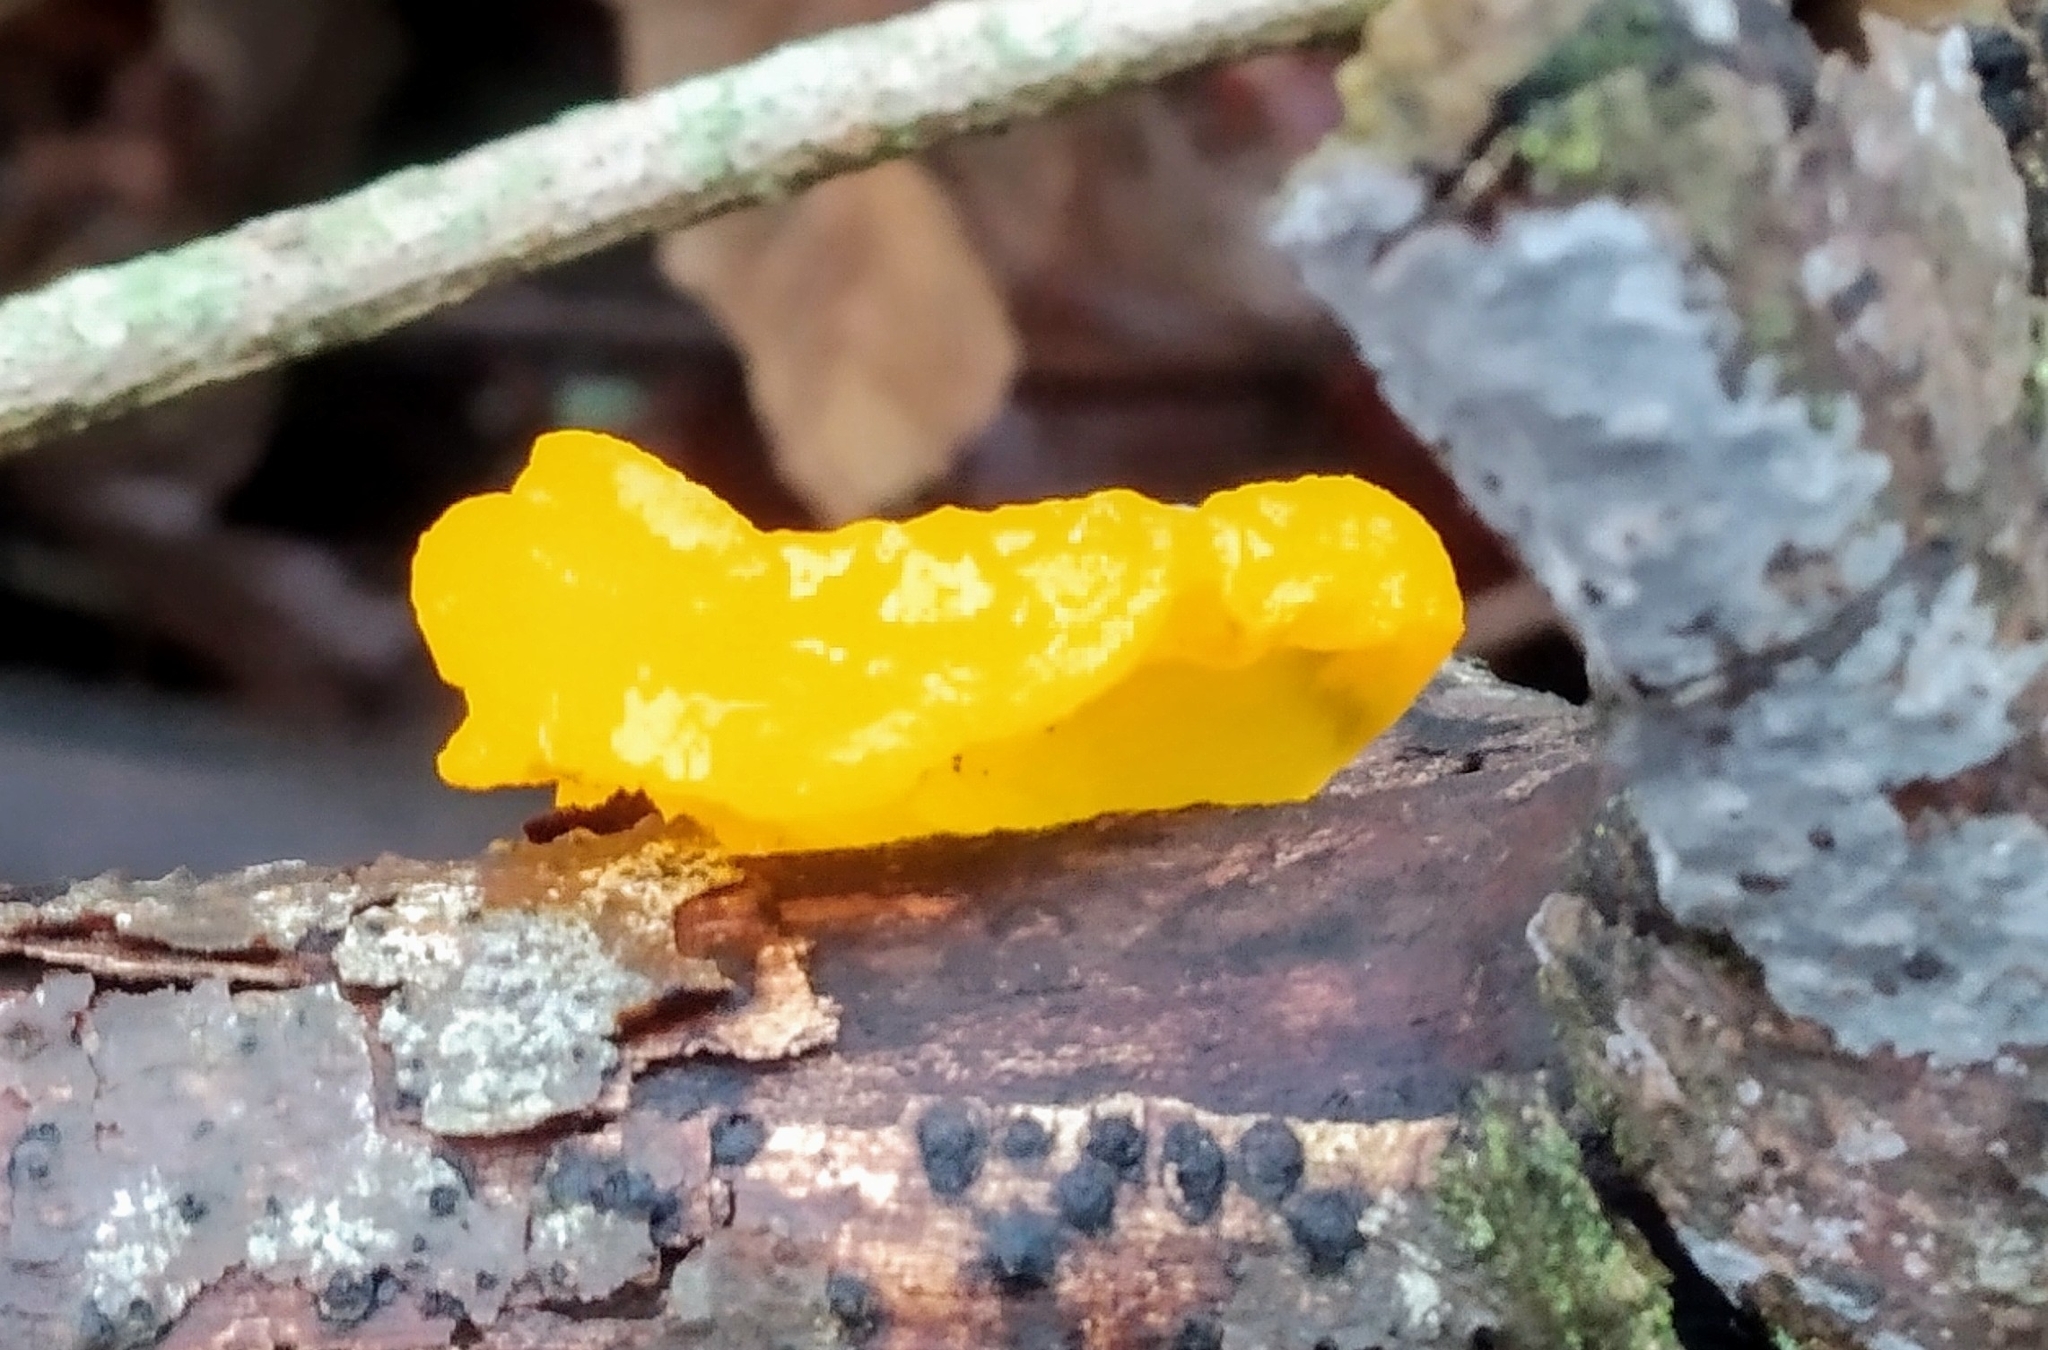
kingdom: Fungi
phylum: Basidiomycota
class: Tremellomycetes
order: Tremellales
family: Tremellaceae
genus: Tremella
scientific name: Tremella mesenterica
